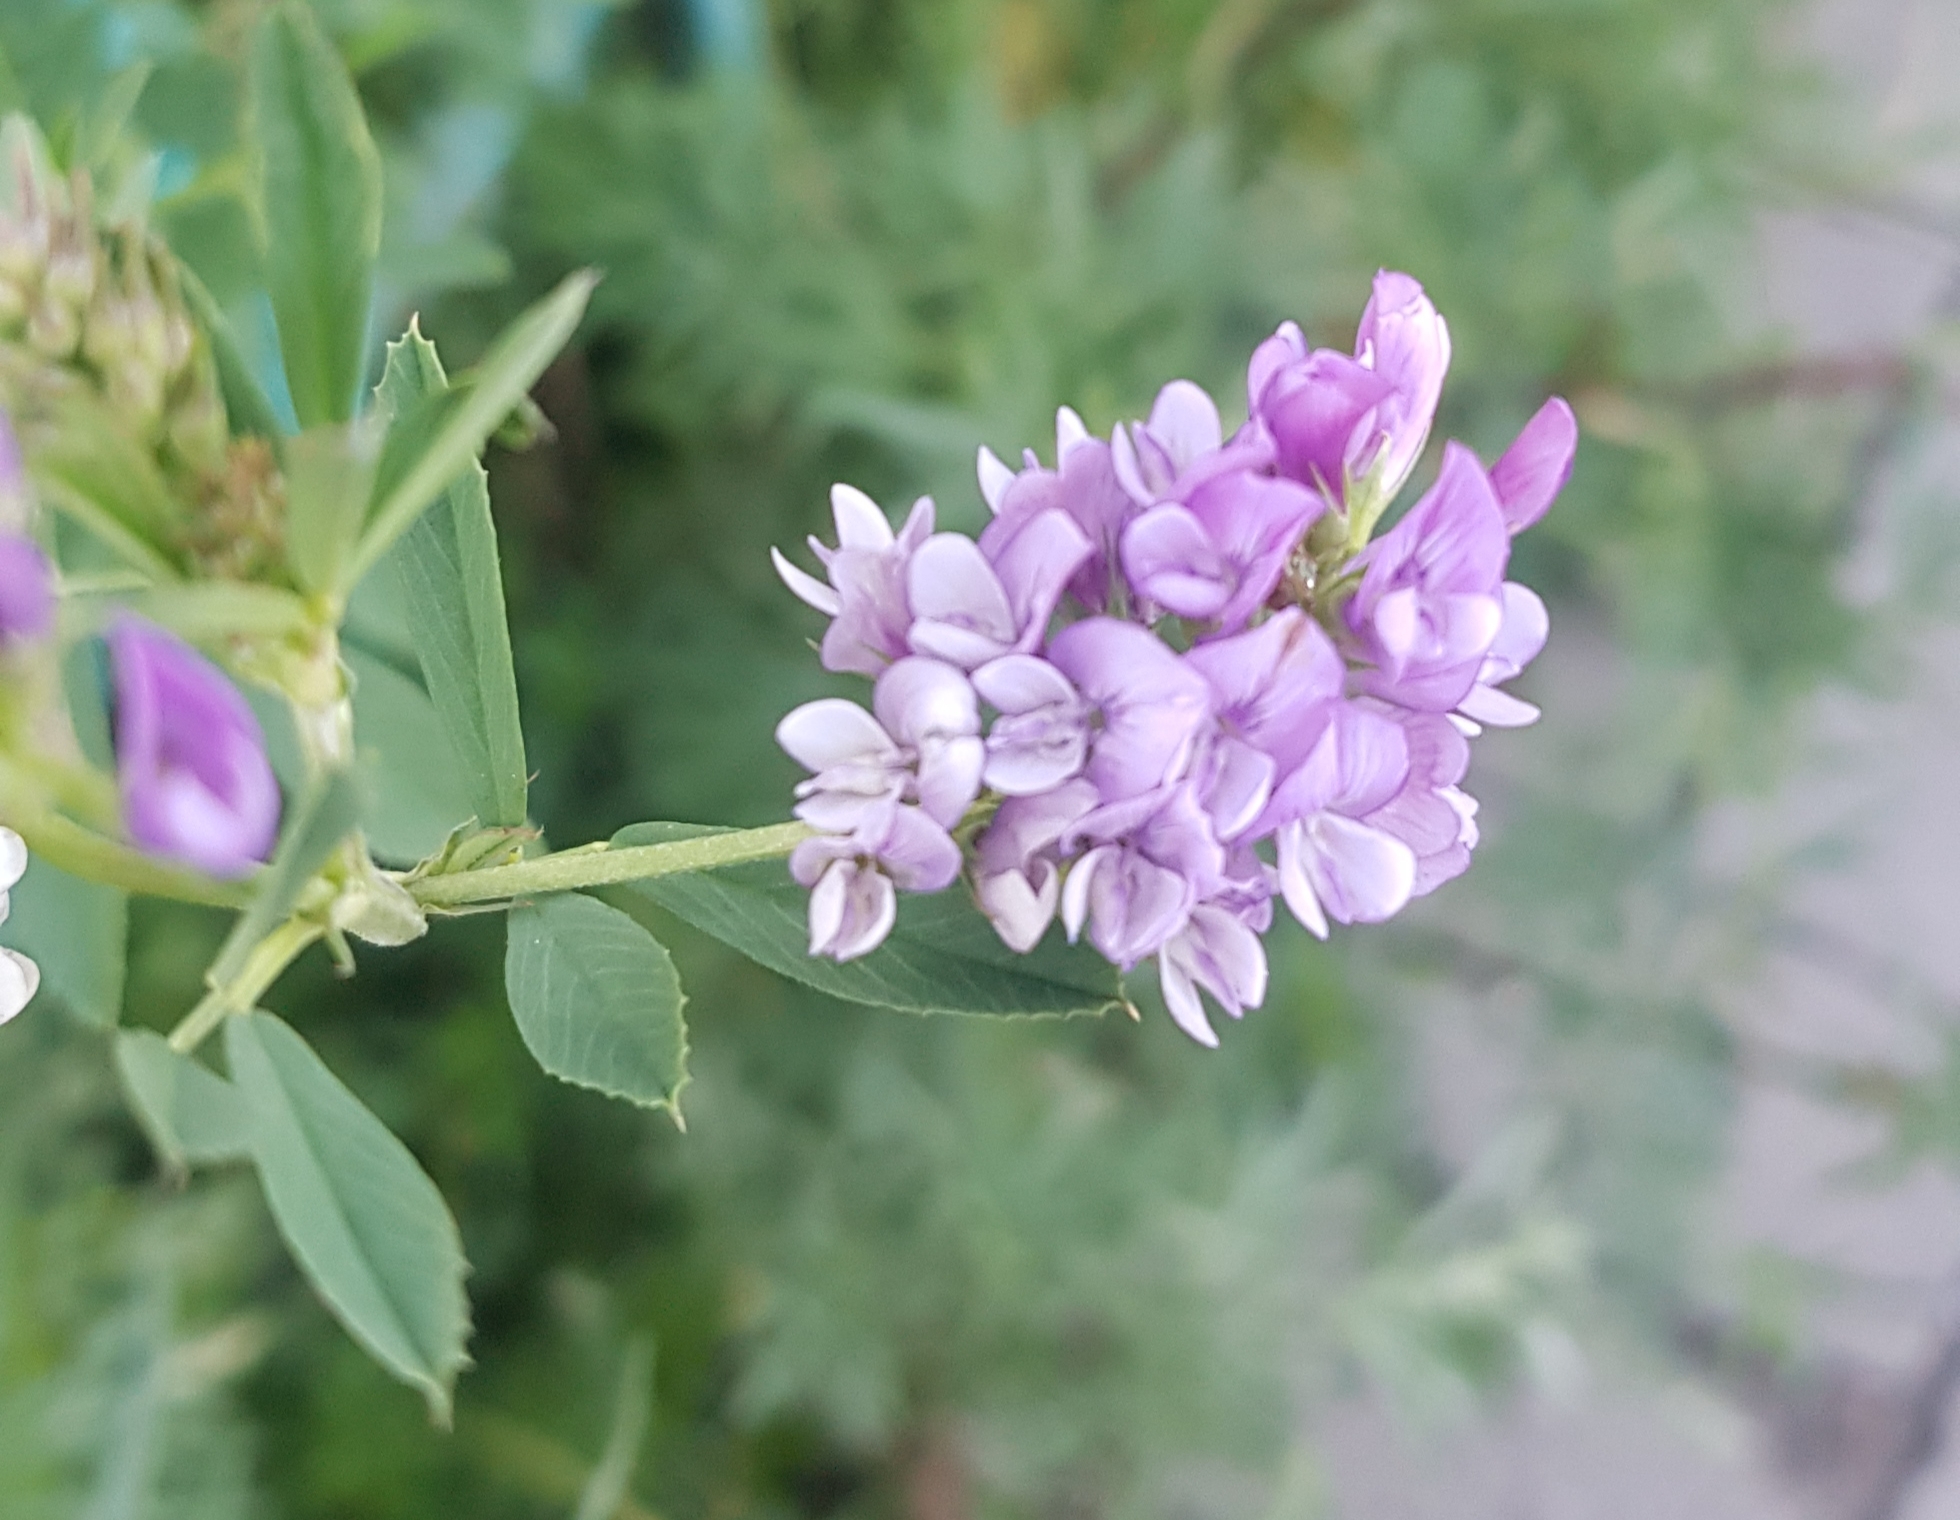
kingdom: Plantae
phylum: Tracheophyta
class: Magnoliopsida
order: Fabales
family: Fabaceae
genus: Medicago
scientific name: Medicago sativa
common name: Alfalfa
